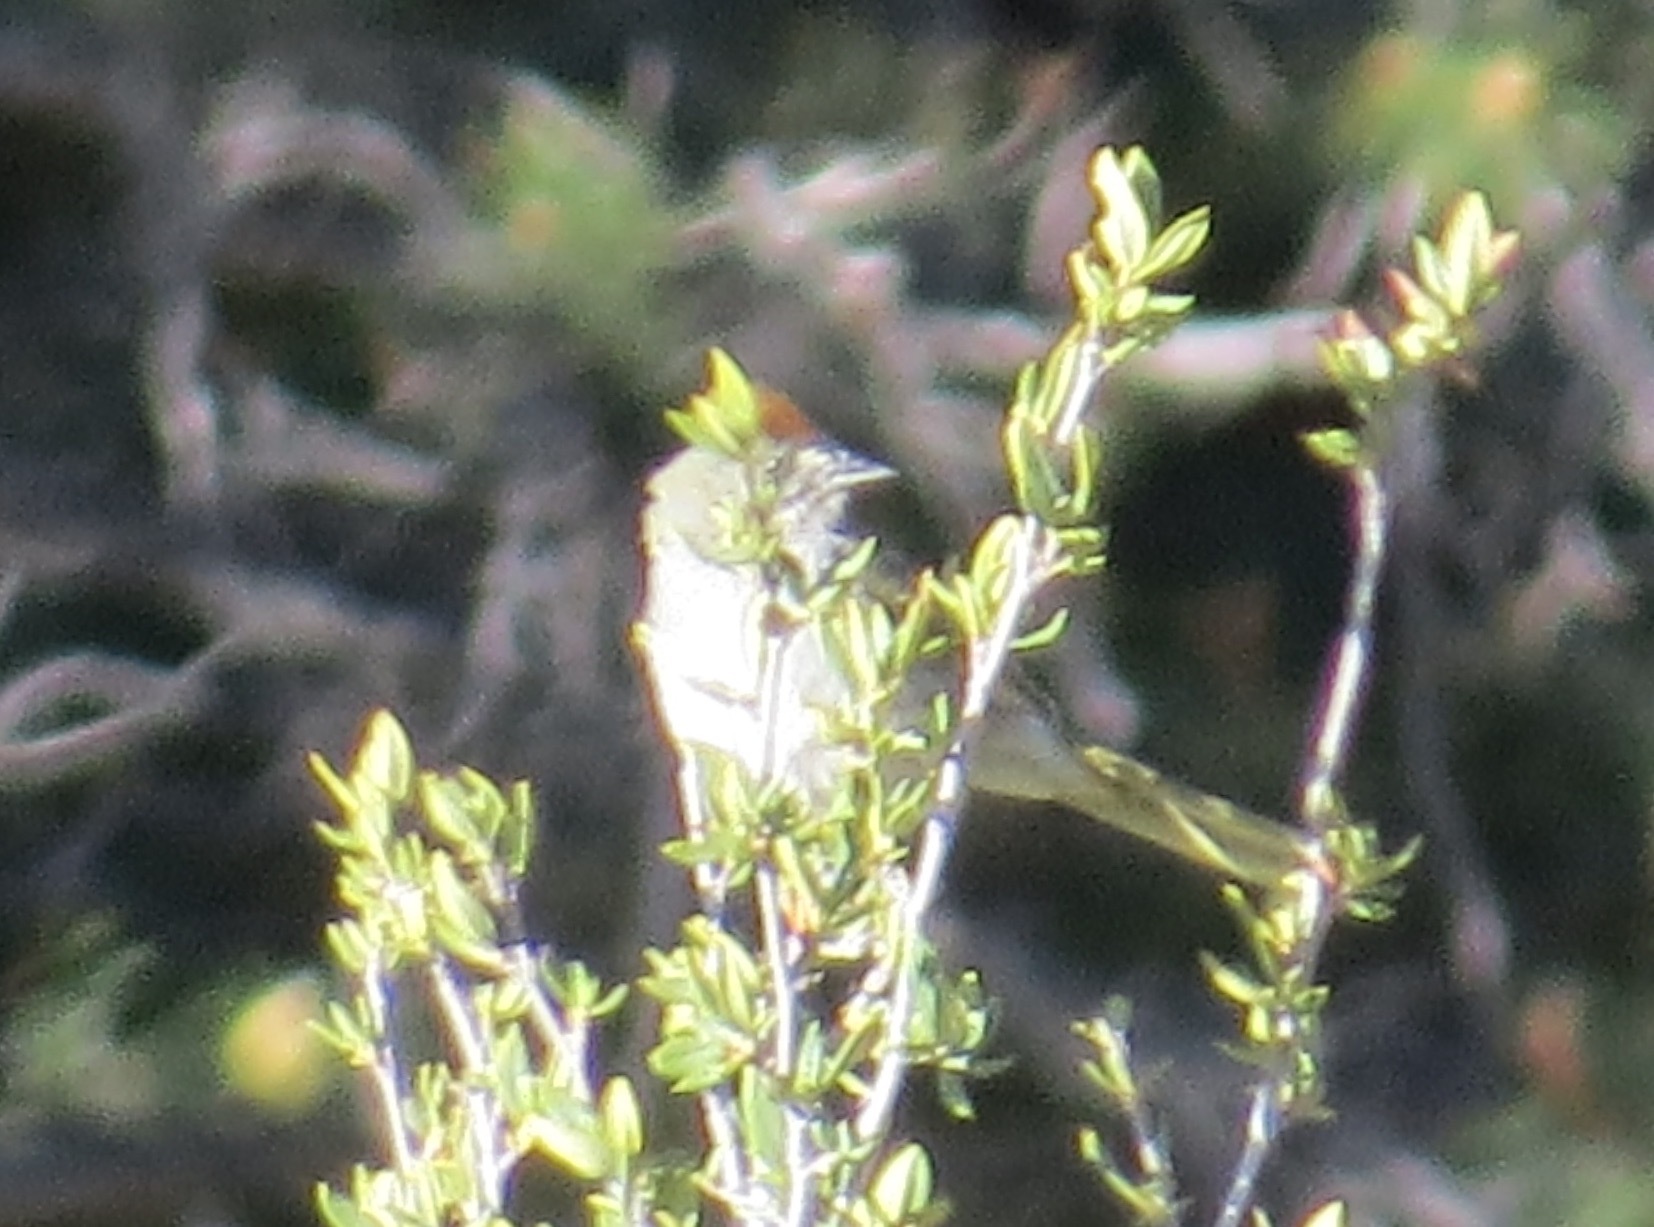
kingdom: Animalia
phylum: Chordata
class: Aves
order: Passeriformes
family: Passerellidae
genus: Pipilo
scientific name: Pipilo chlorurus
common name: Green-tailed towhee
